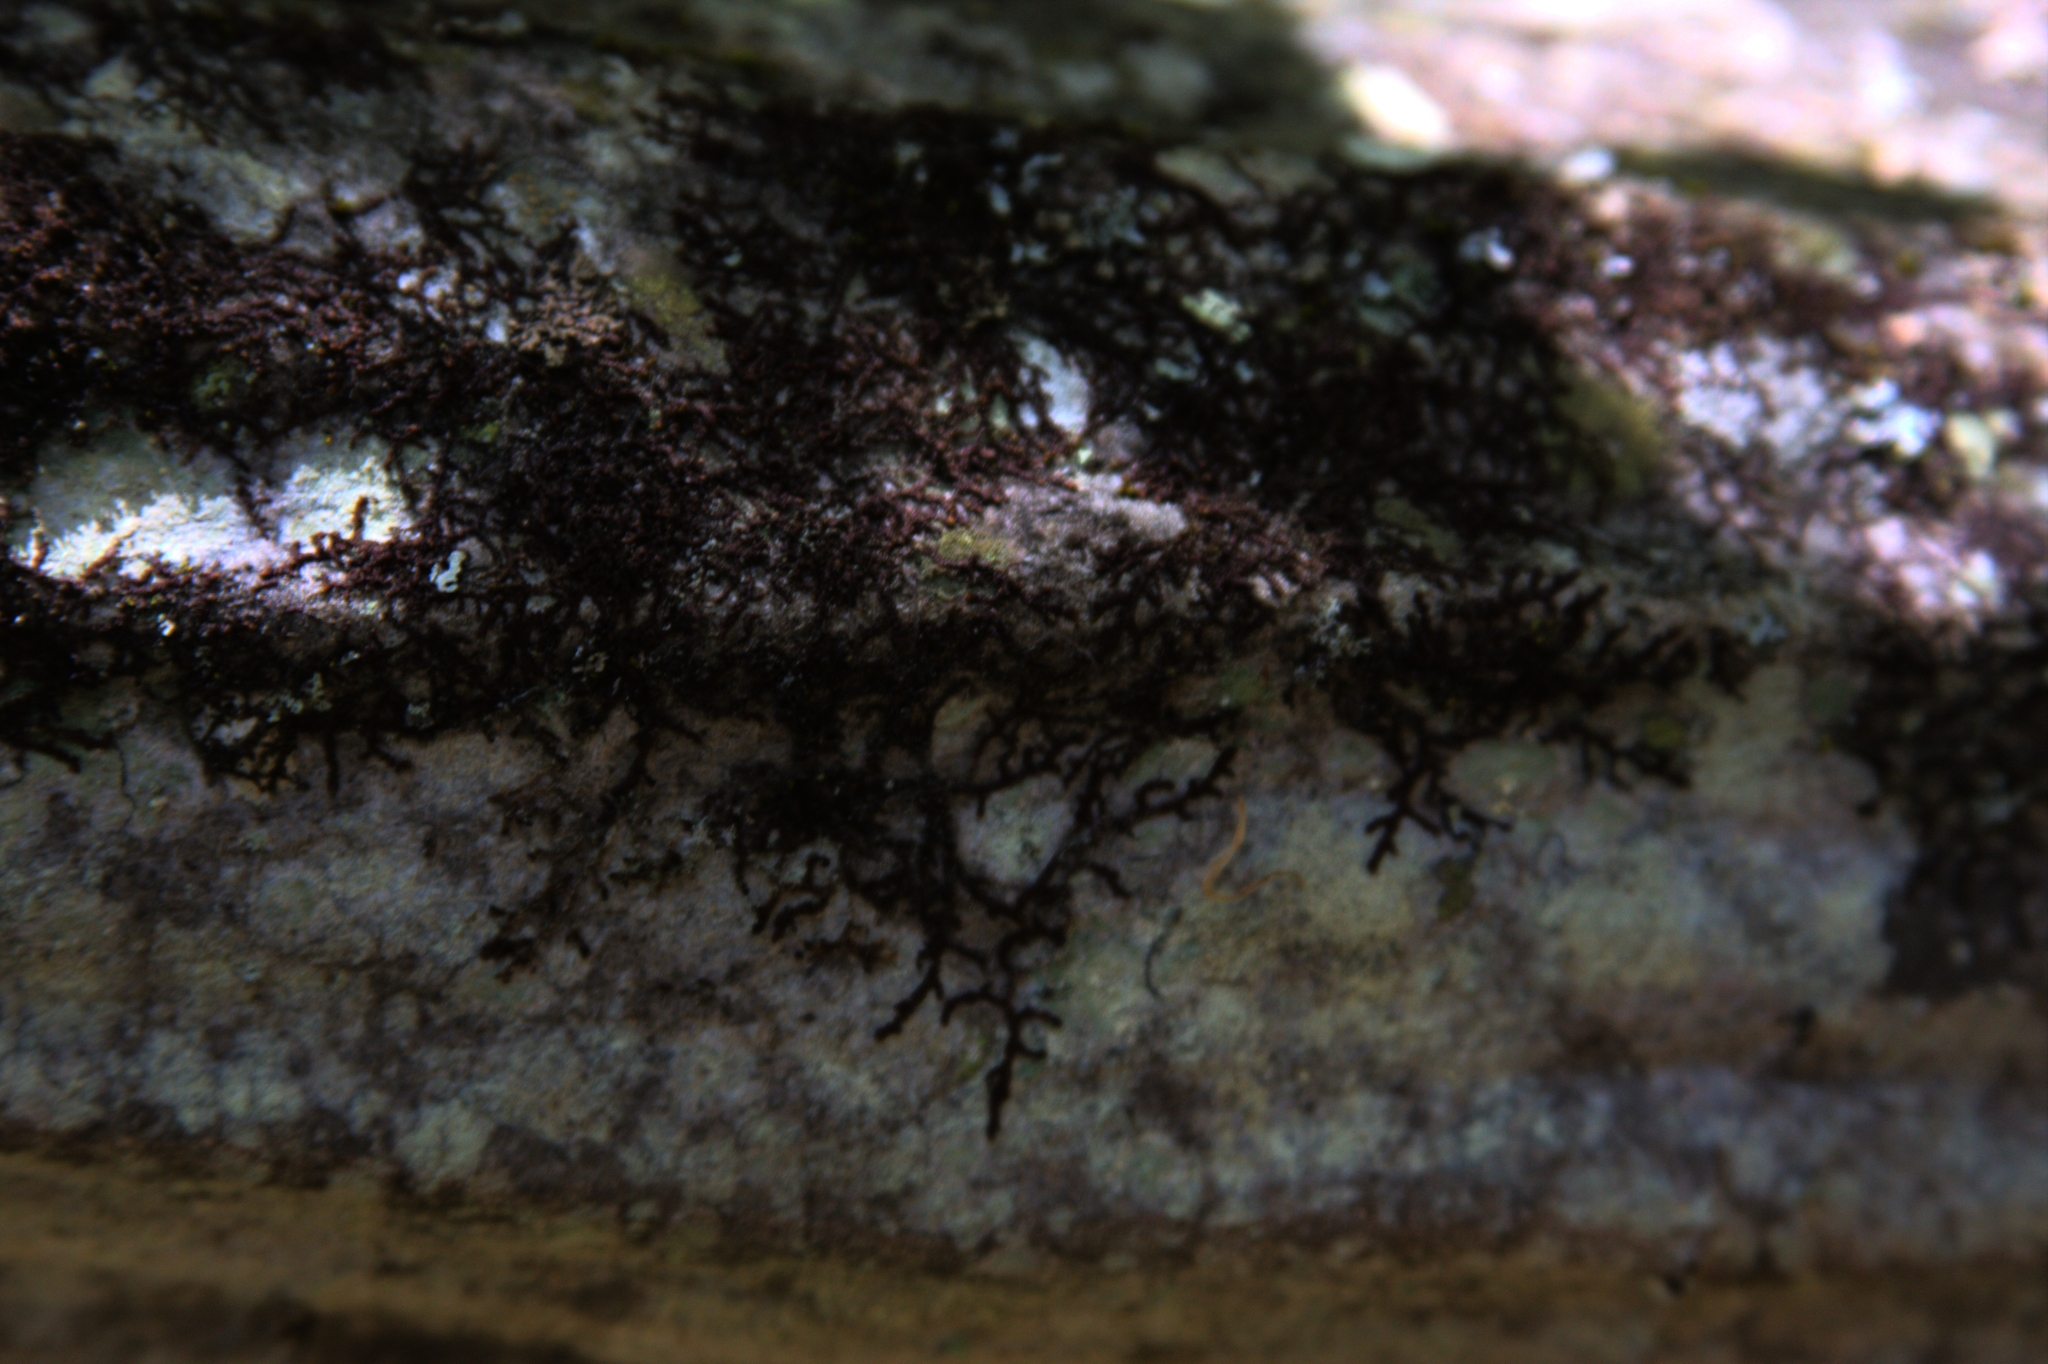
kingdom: Plantae
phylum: Marchantiophyta
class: Jungermanniopsida
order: Porellales
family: Frullaniaceae
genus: Frullania
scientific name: Frullania eboracensis
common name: New york scalewort
